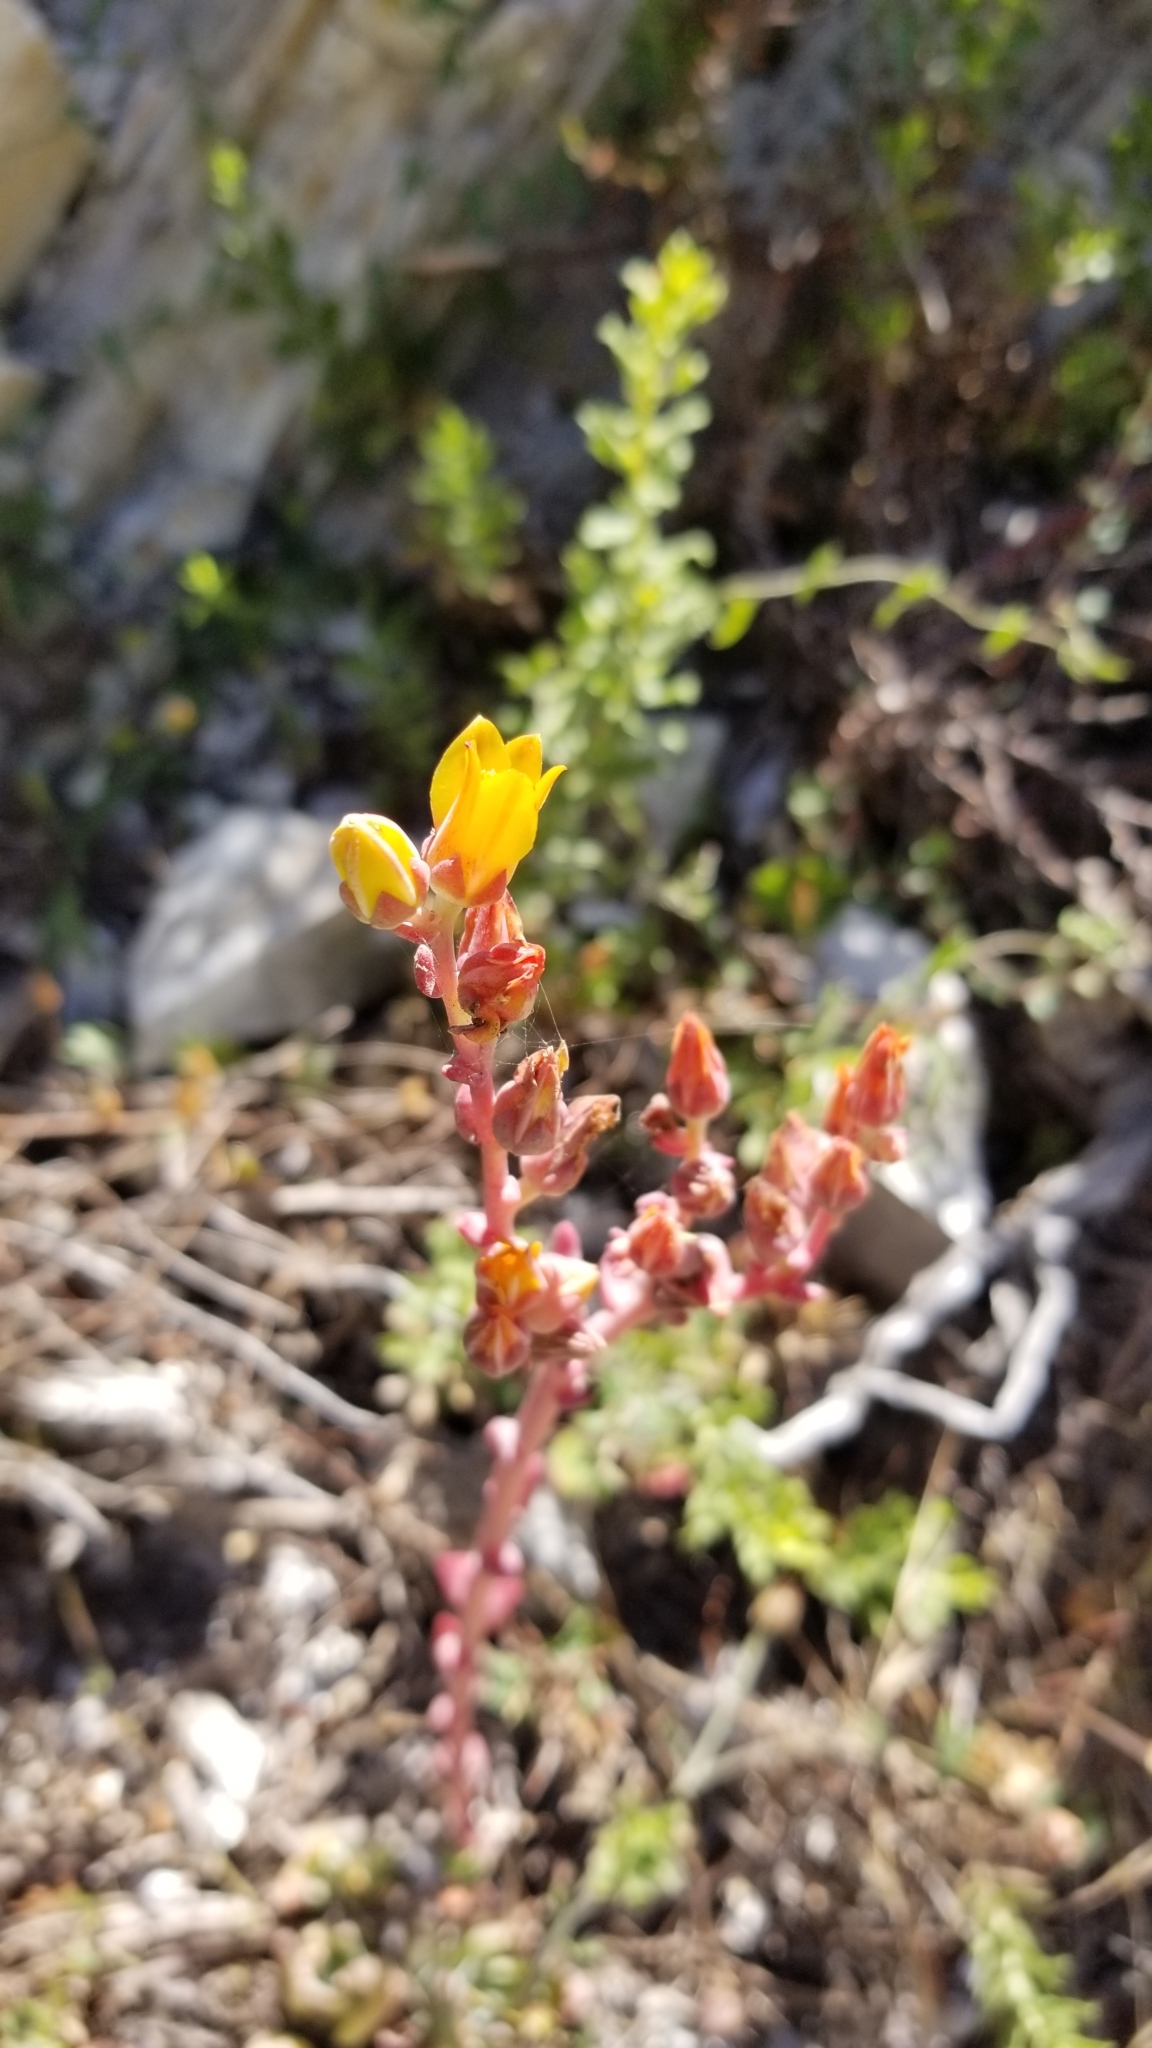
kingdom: Plantae
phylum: Tracheophyta
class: Magnoliopsida
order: Saxifragales
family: Crassulaceae
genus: Dudleya
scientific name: Dudleya caespitosa
